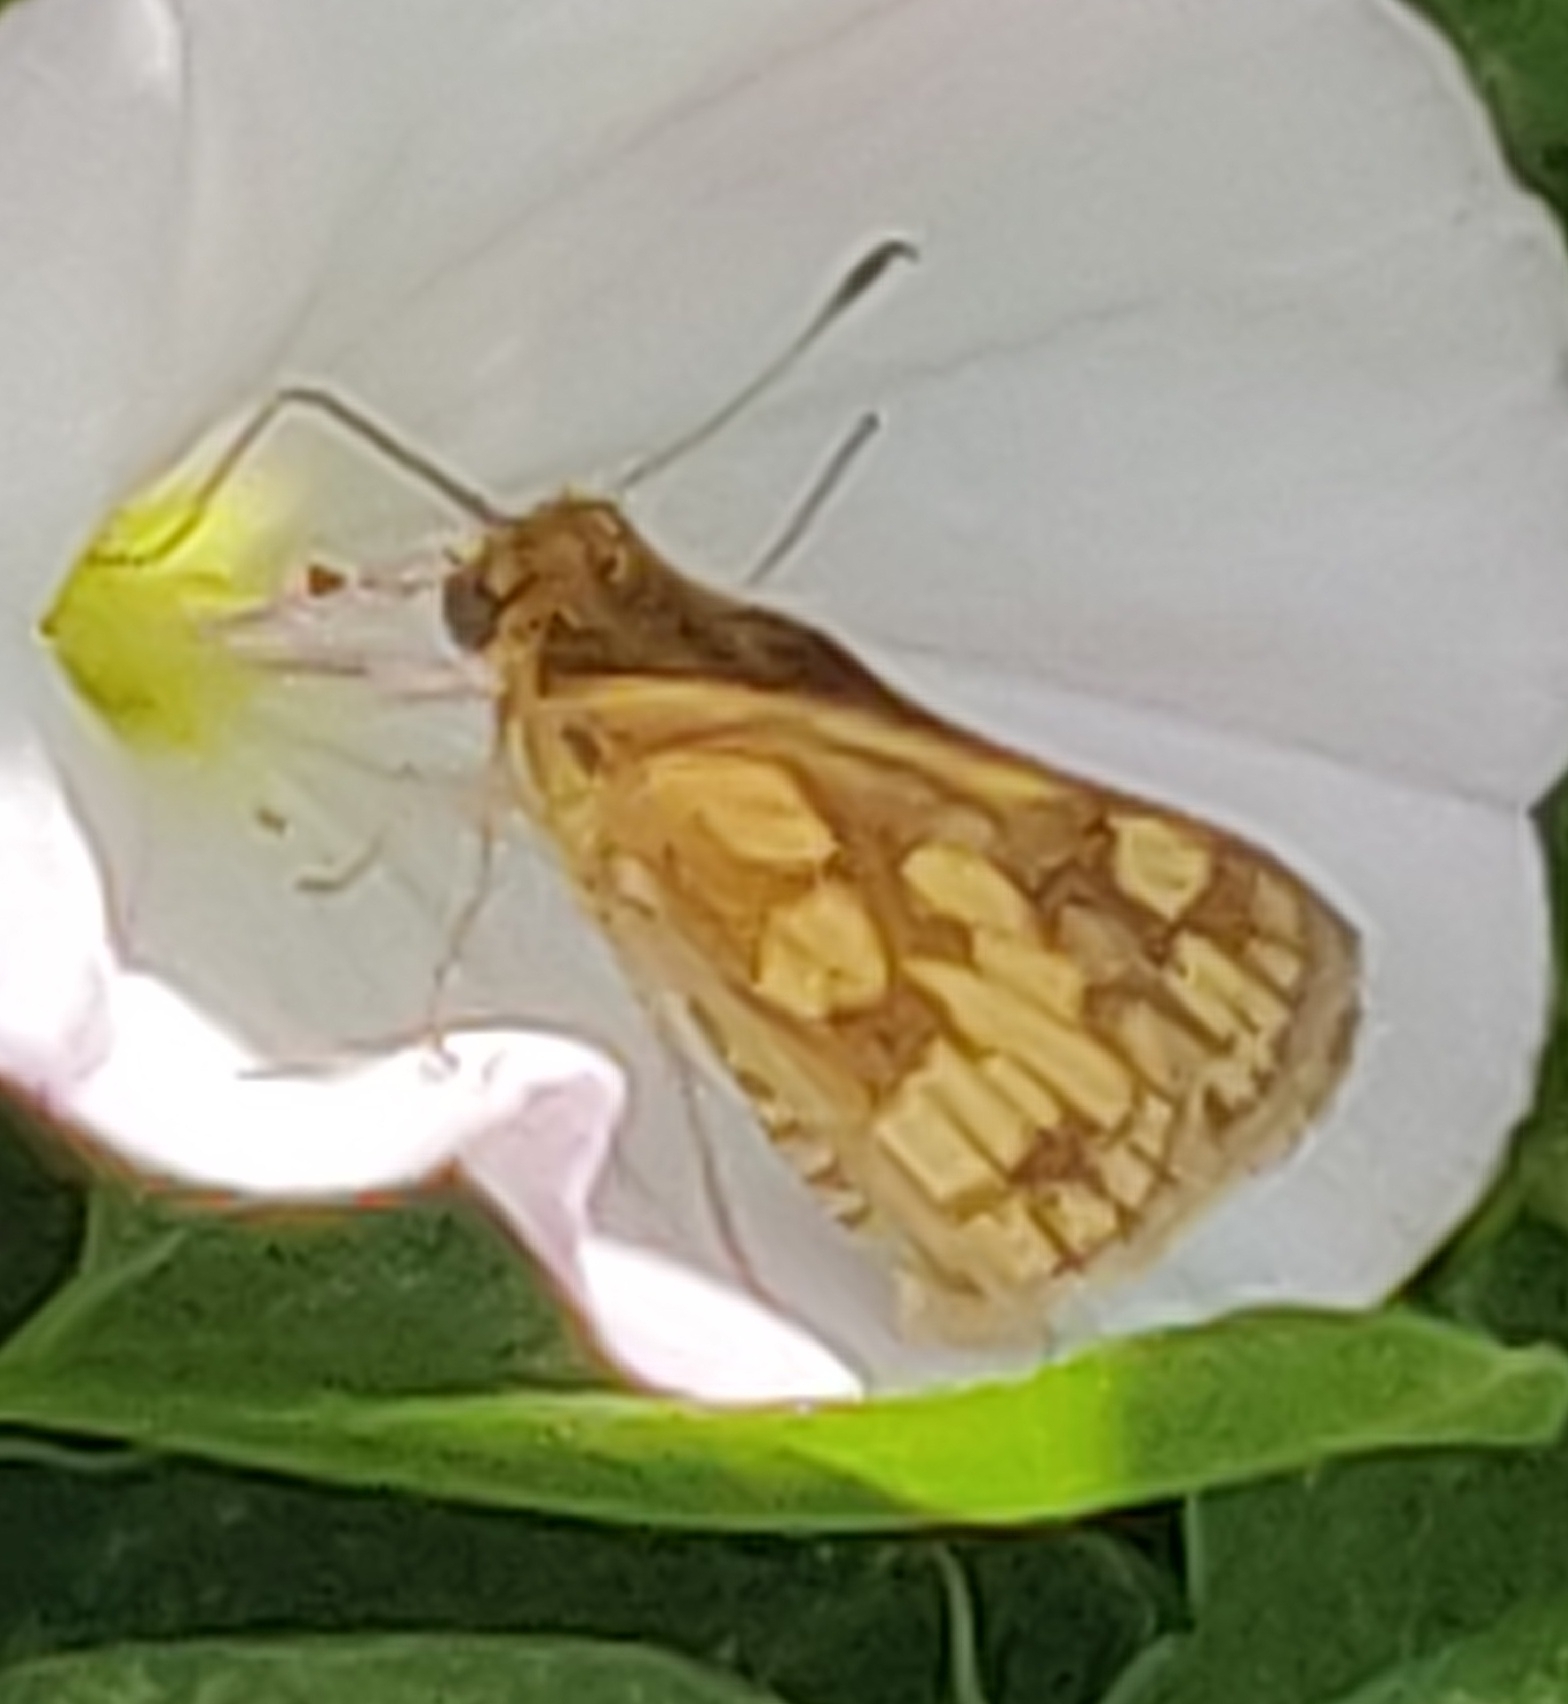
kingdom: Animalia
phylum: Arthropoda
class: Insecta
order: Lepidoptera
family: Hesperiidae
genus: Polites
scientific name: Polites coras
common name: Peck's skipper
